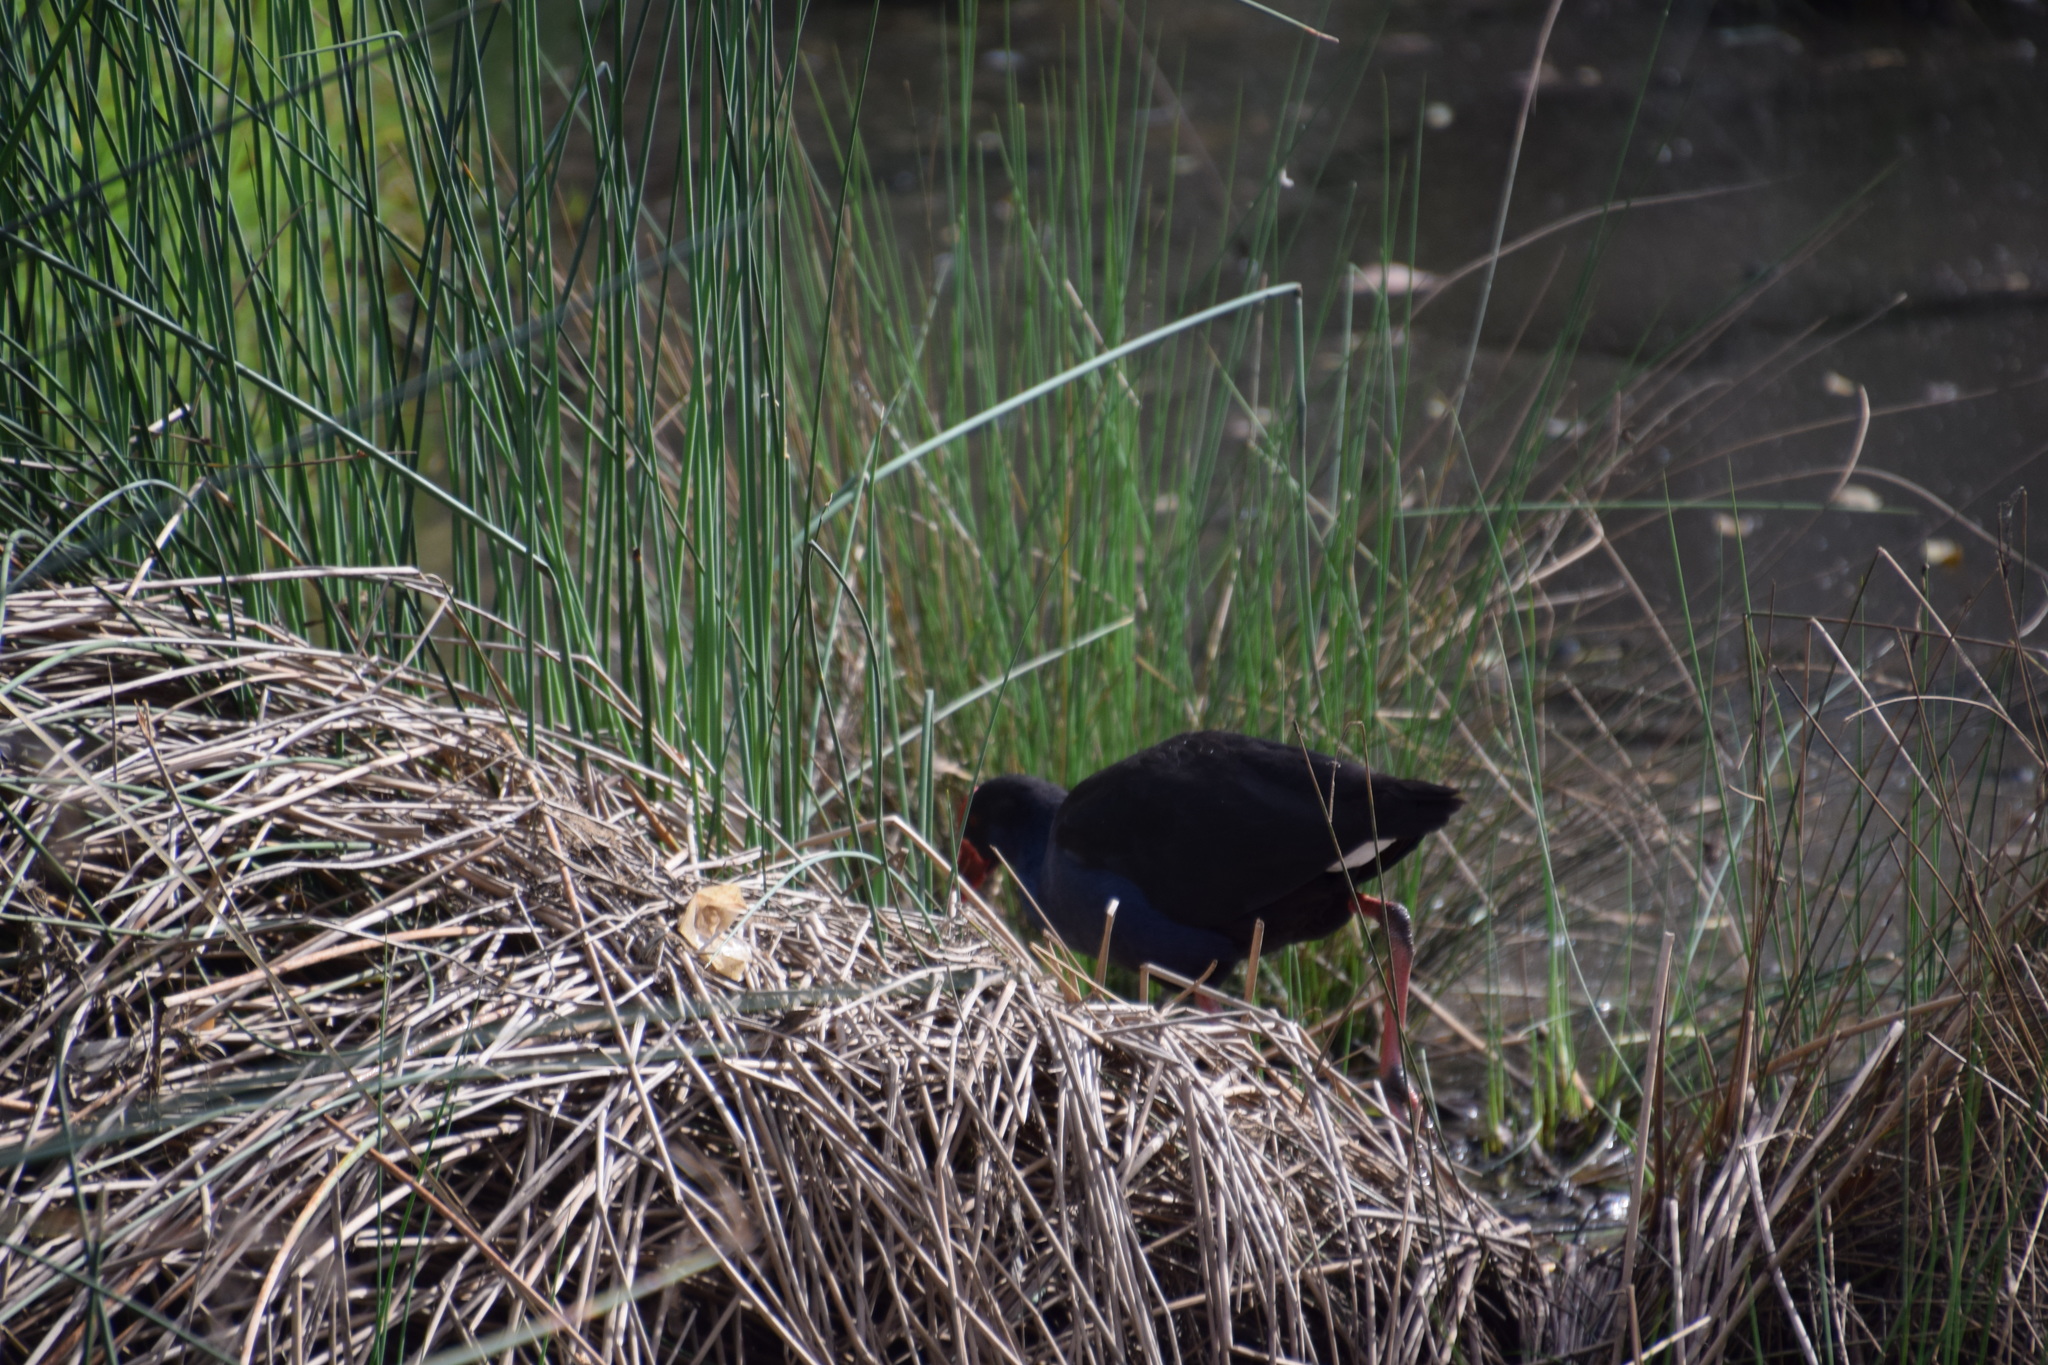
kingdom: Animalia
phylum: Chordata
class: Aves
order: Gruiformes
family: Rallidae
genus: Porphyrio
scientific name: Porphyrio melanotus
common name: Australasian swamphen
